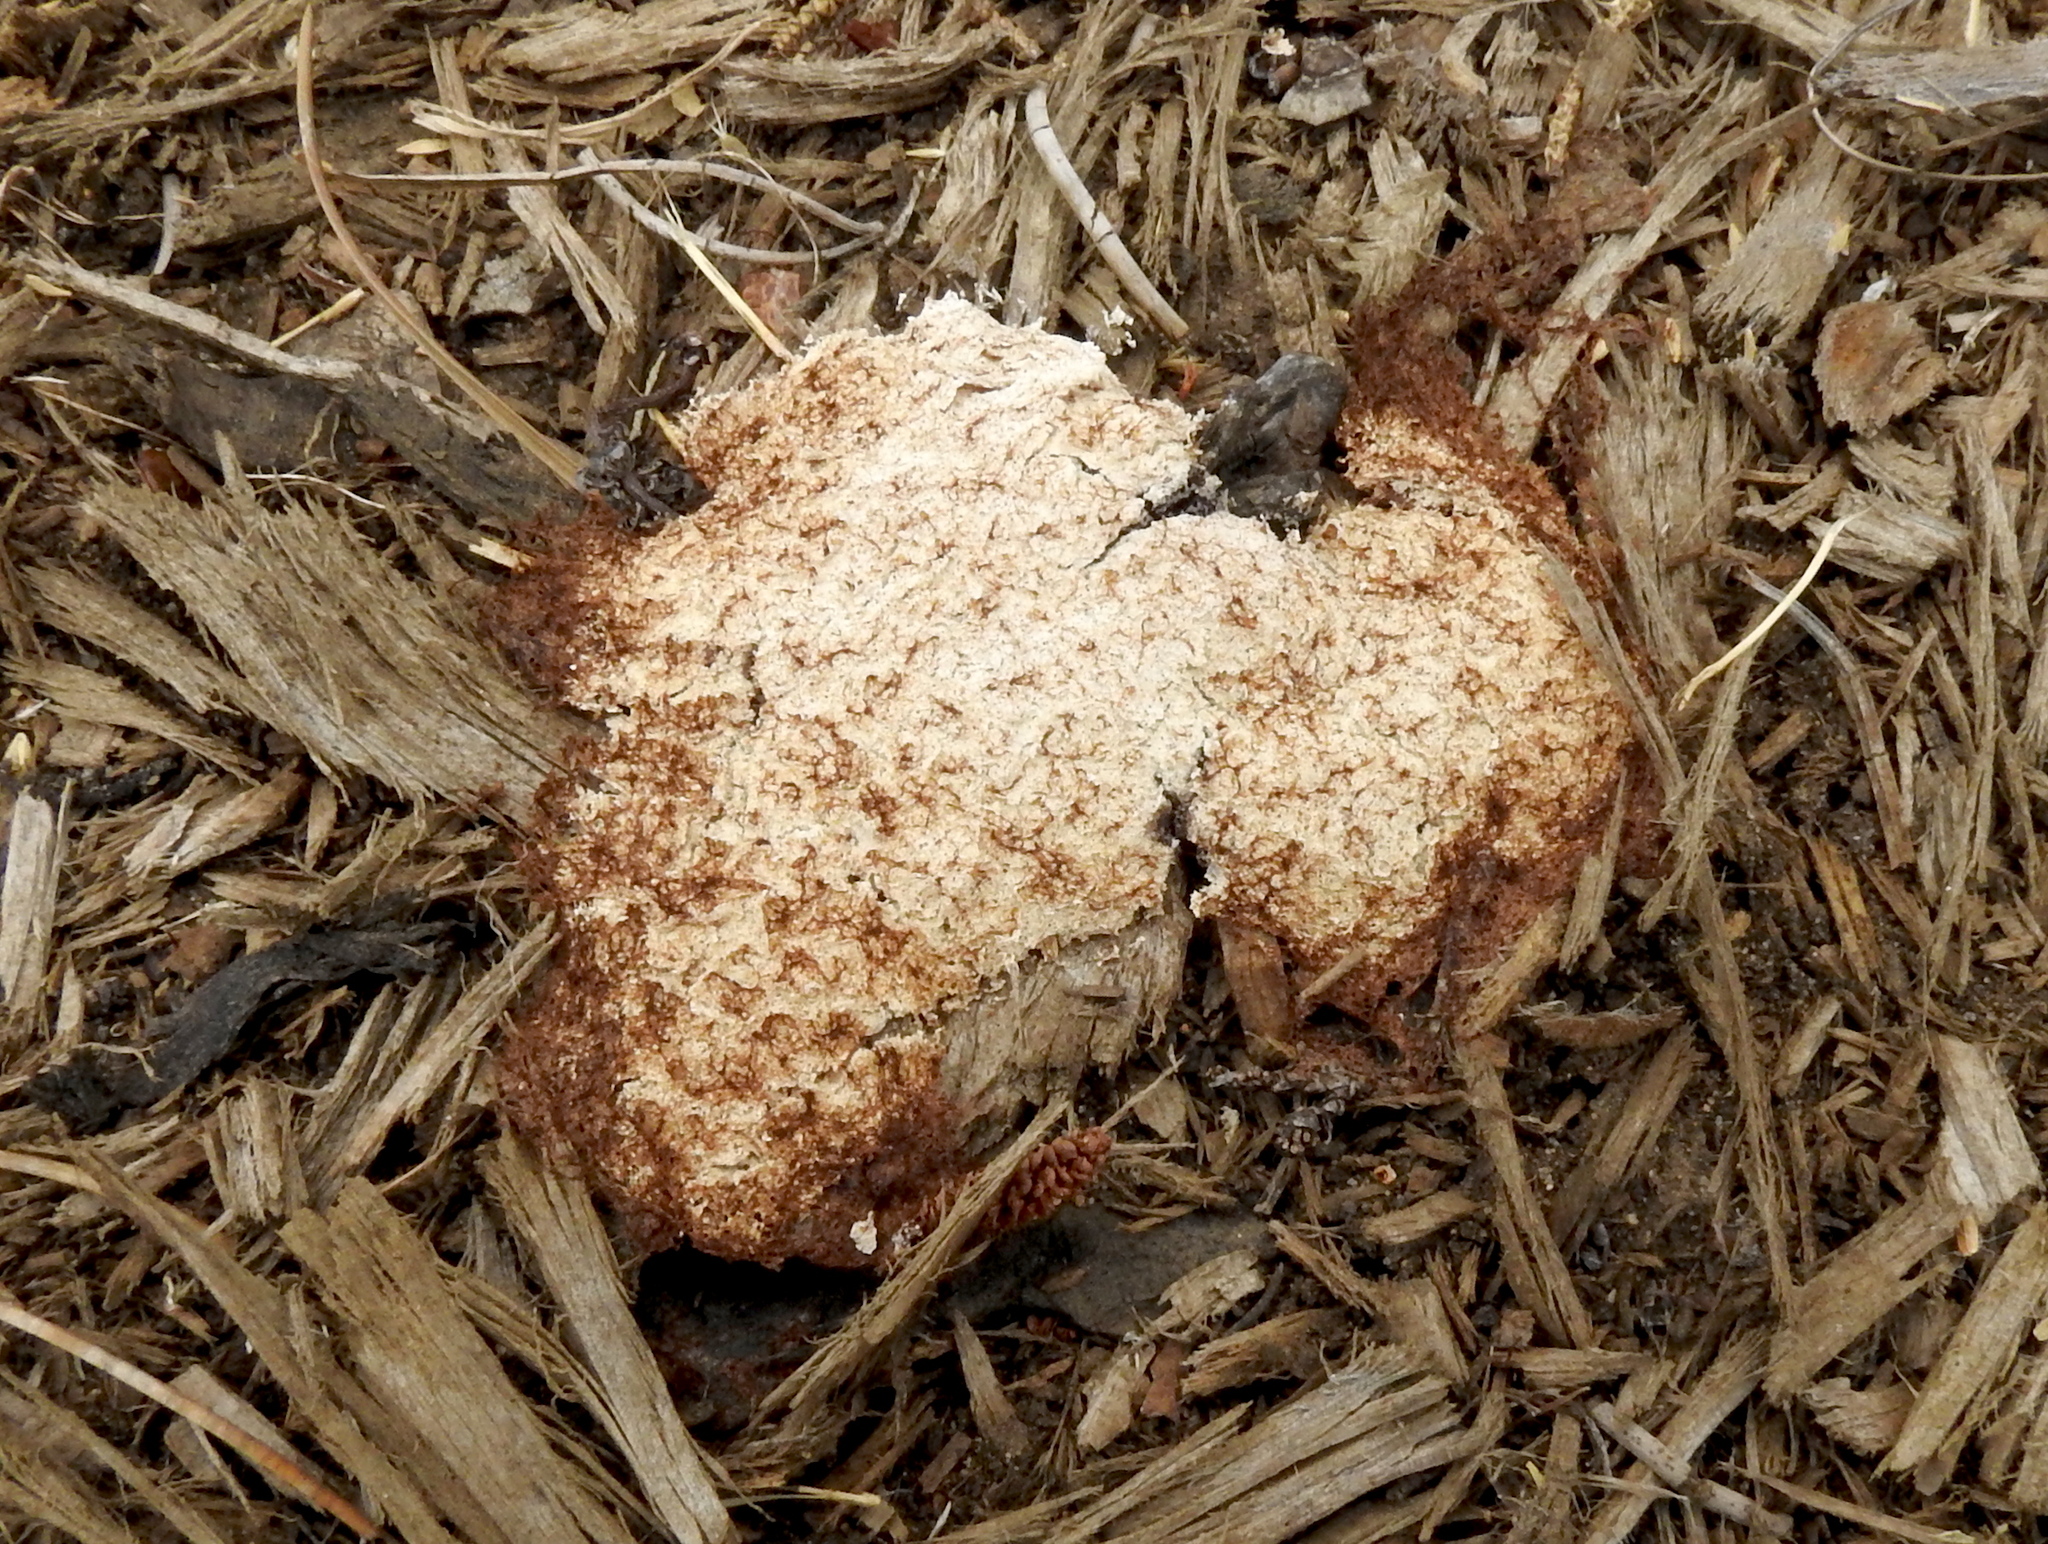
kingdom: Protozoa
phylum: Mycetozoa
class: Myxomycetes
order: Physarales
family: Physaraceae
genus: Fuligo
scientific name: Fuligo septica
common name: Dog vomit slime mold
